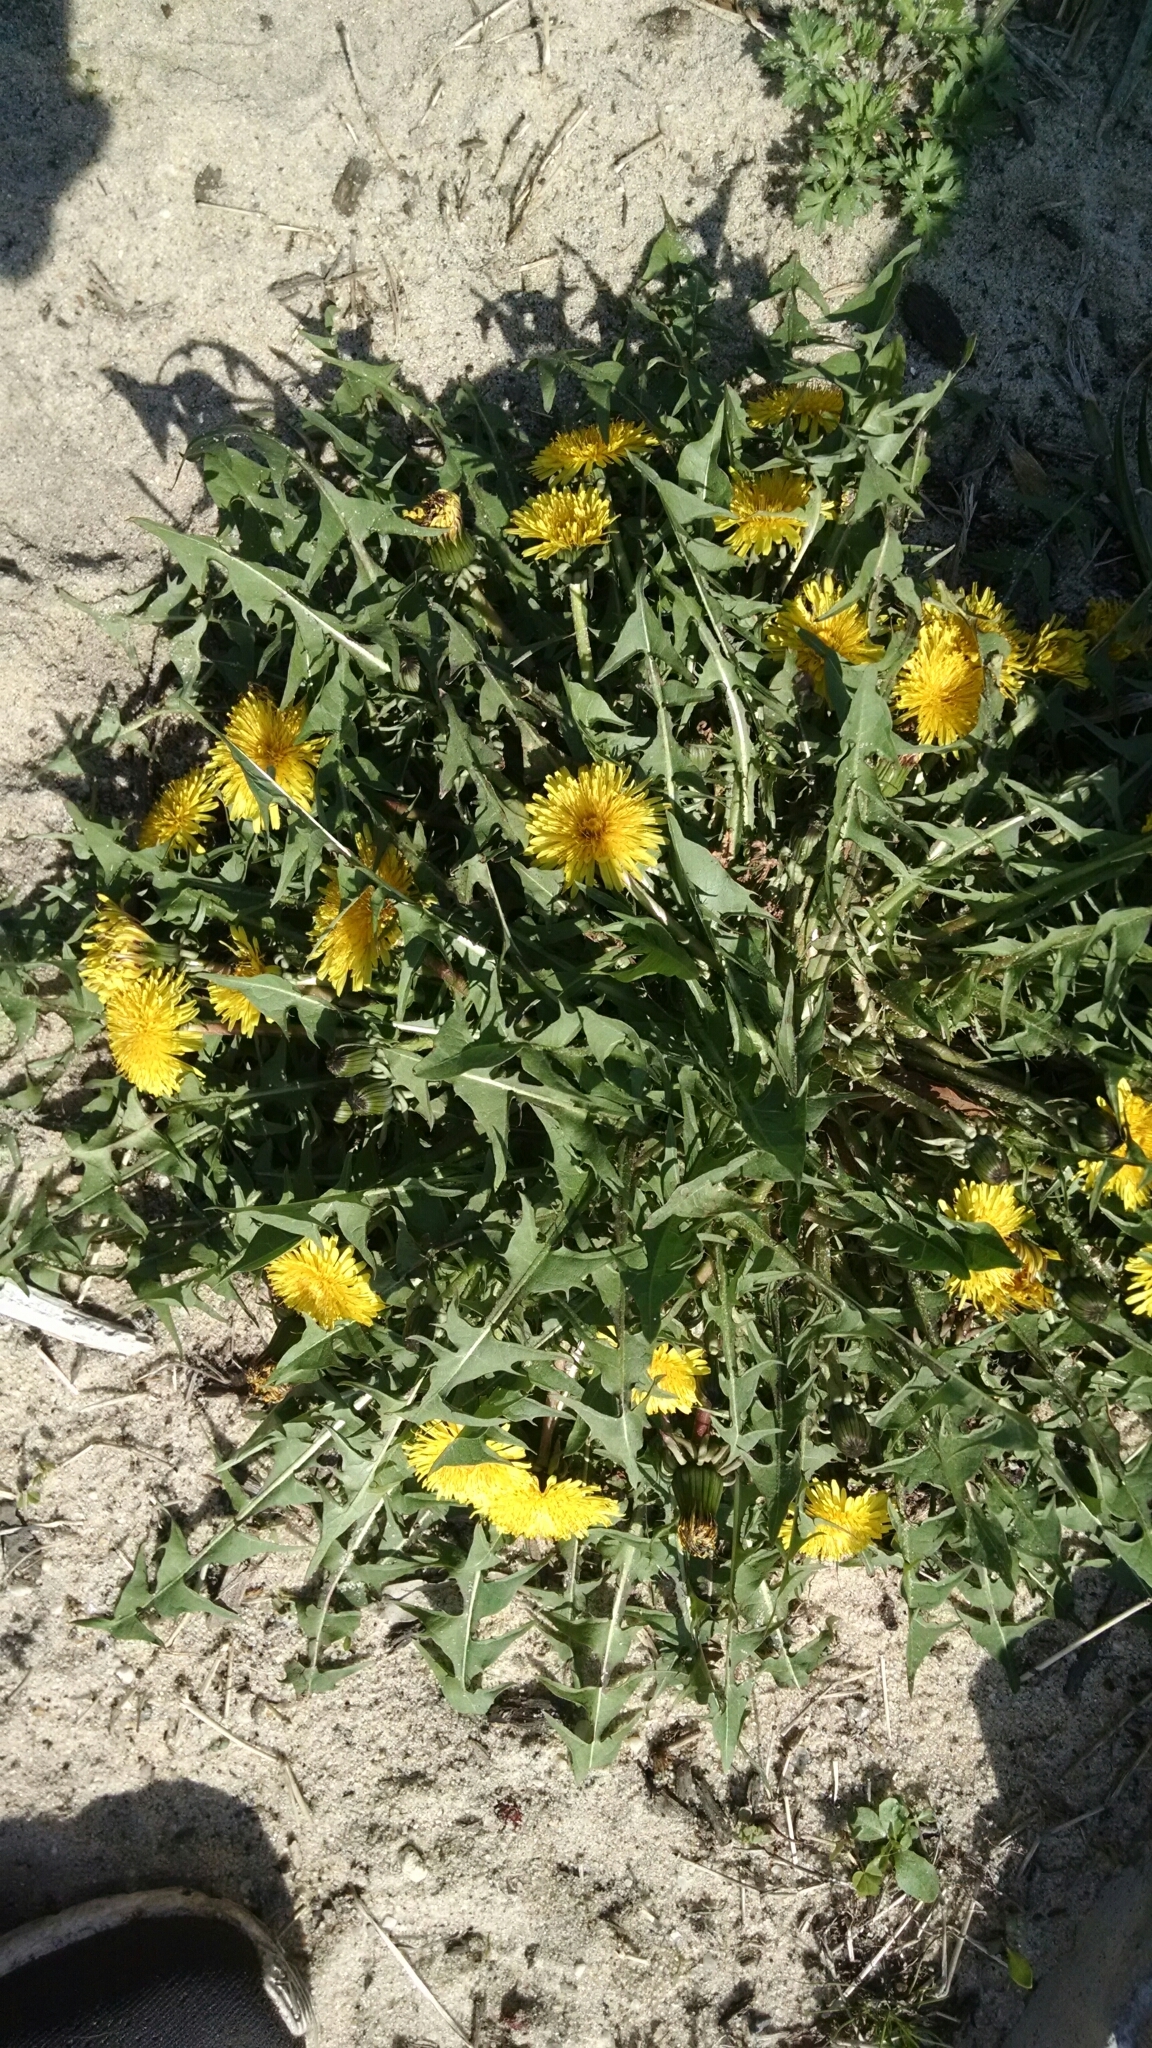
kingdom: Plantae
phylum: Tracheophyta
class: Magnoliopsida
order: Asterales
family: Asteraceae
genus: Taraxacum
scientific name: Taraxacum officinale
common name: Common dandelion
